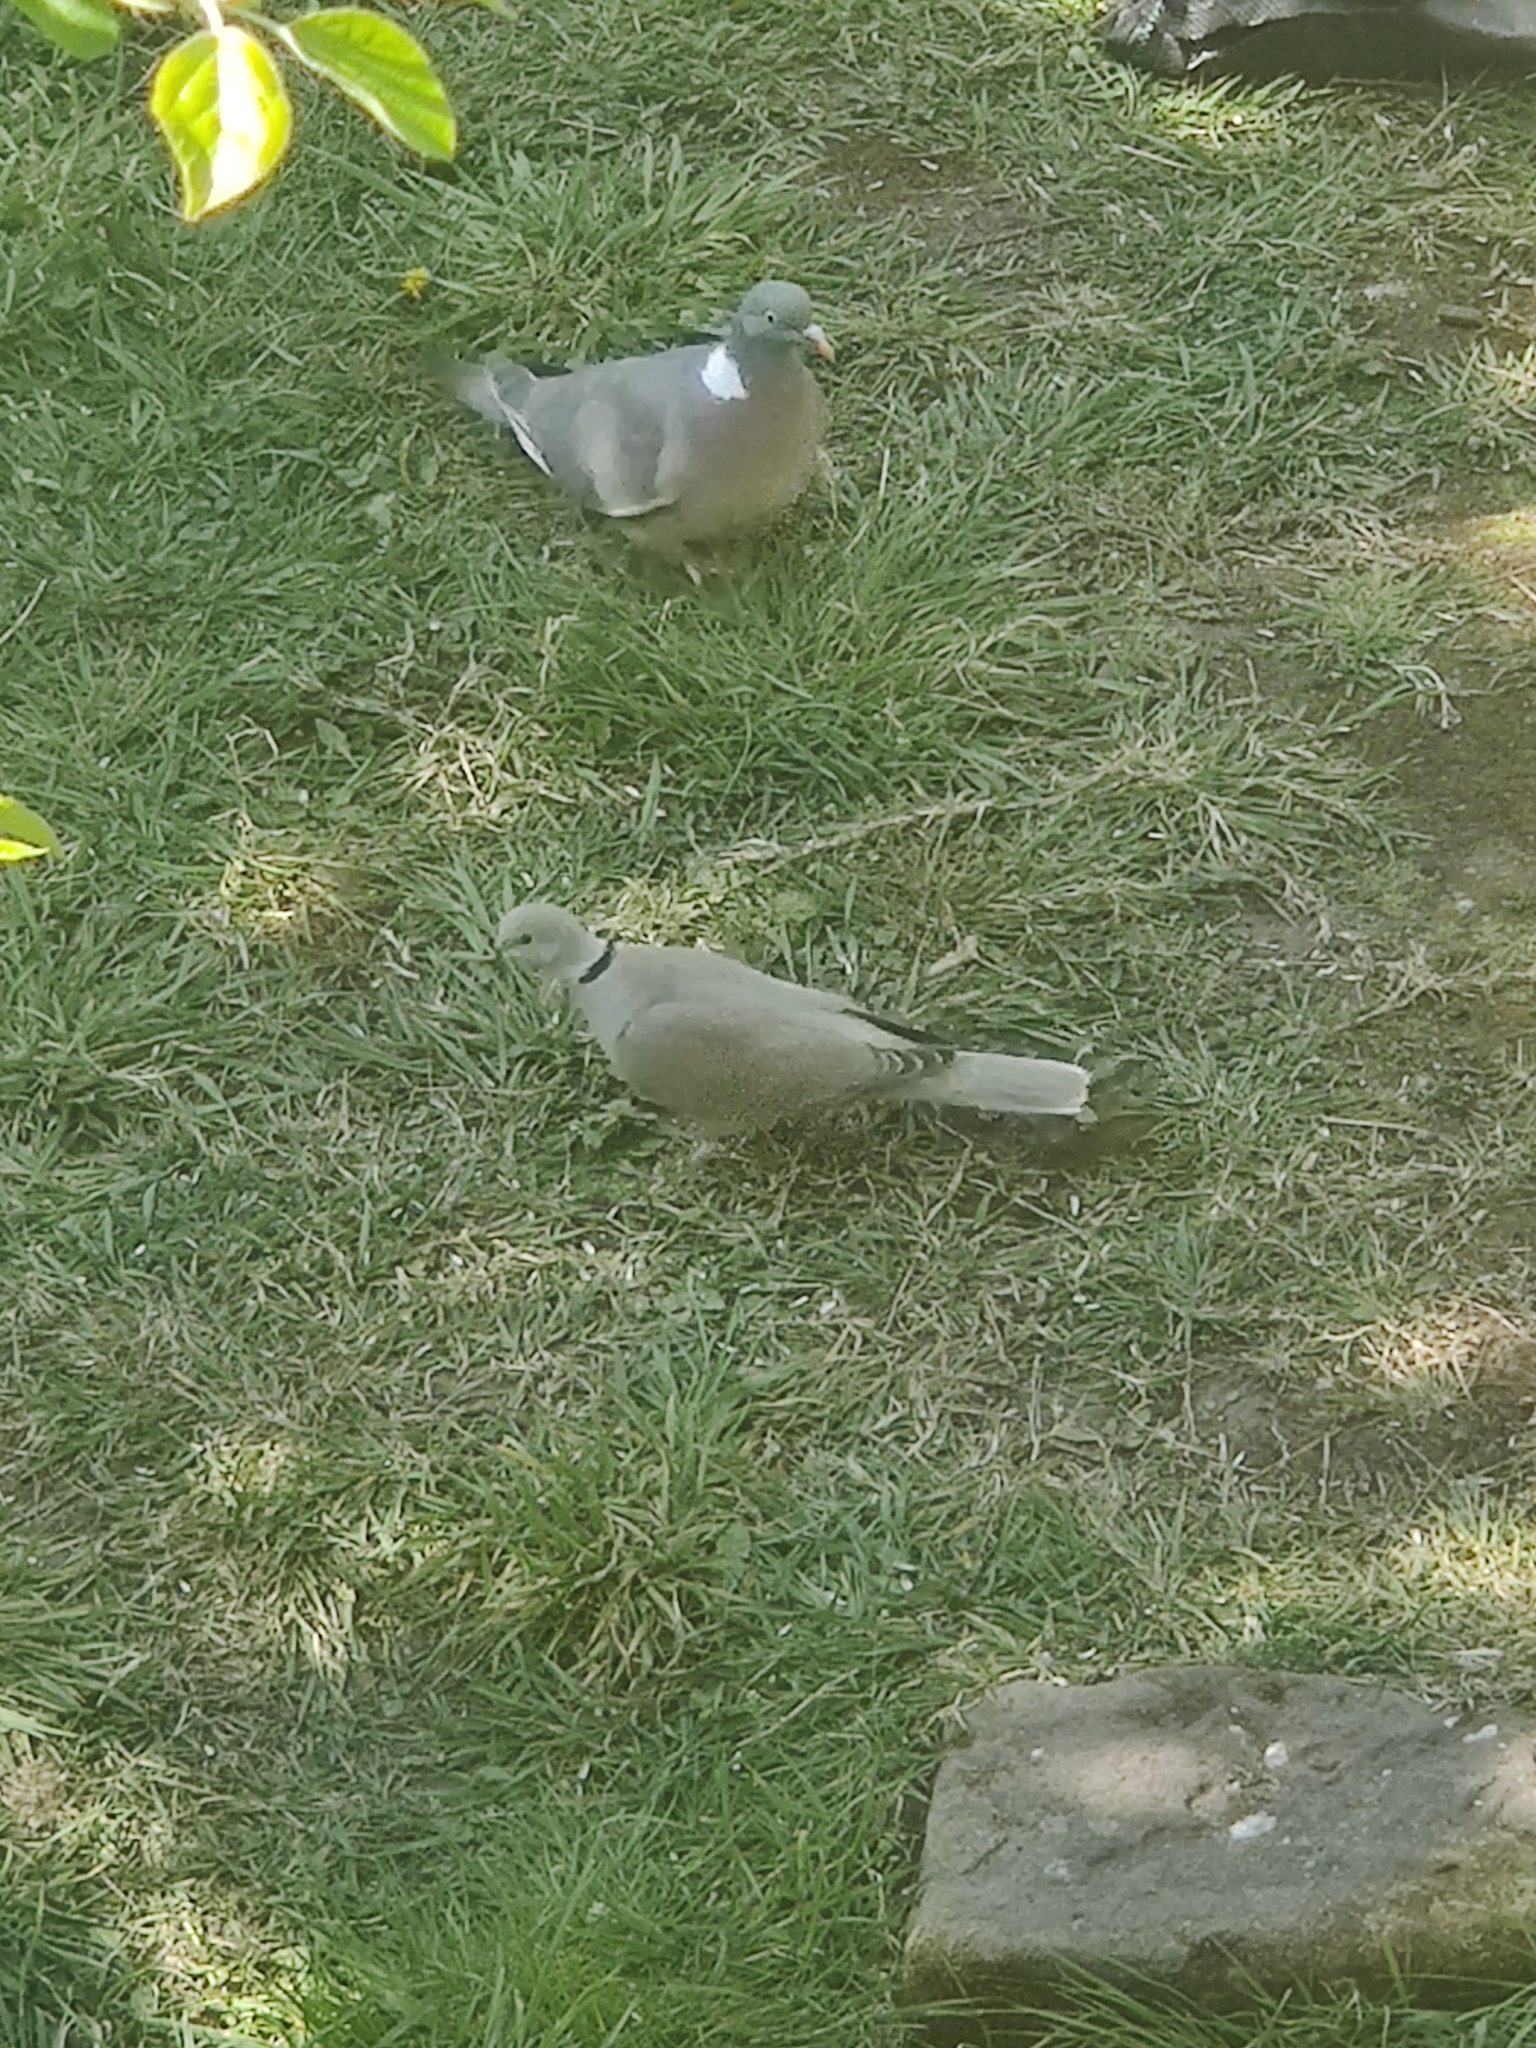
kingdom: Animalia
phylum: Chordata
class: Aves
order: Columbiformes
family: Columbidae
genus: Streptopelia
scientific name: Streptopelia decaocto
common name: Eurasian collared dove
